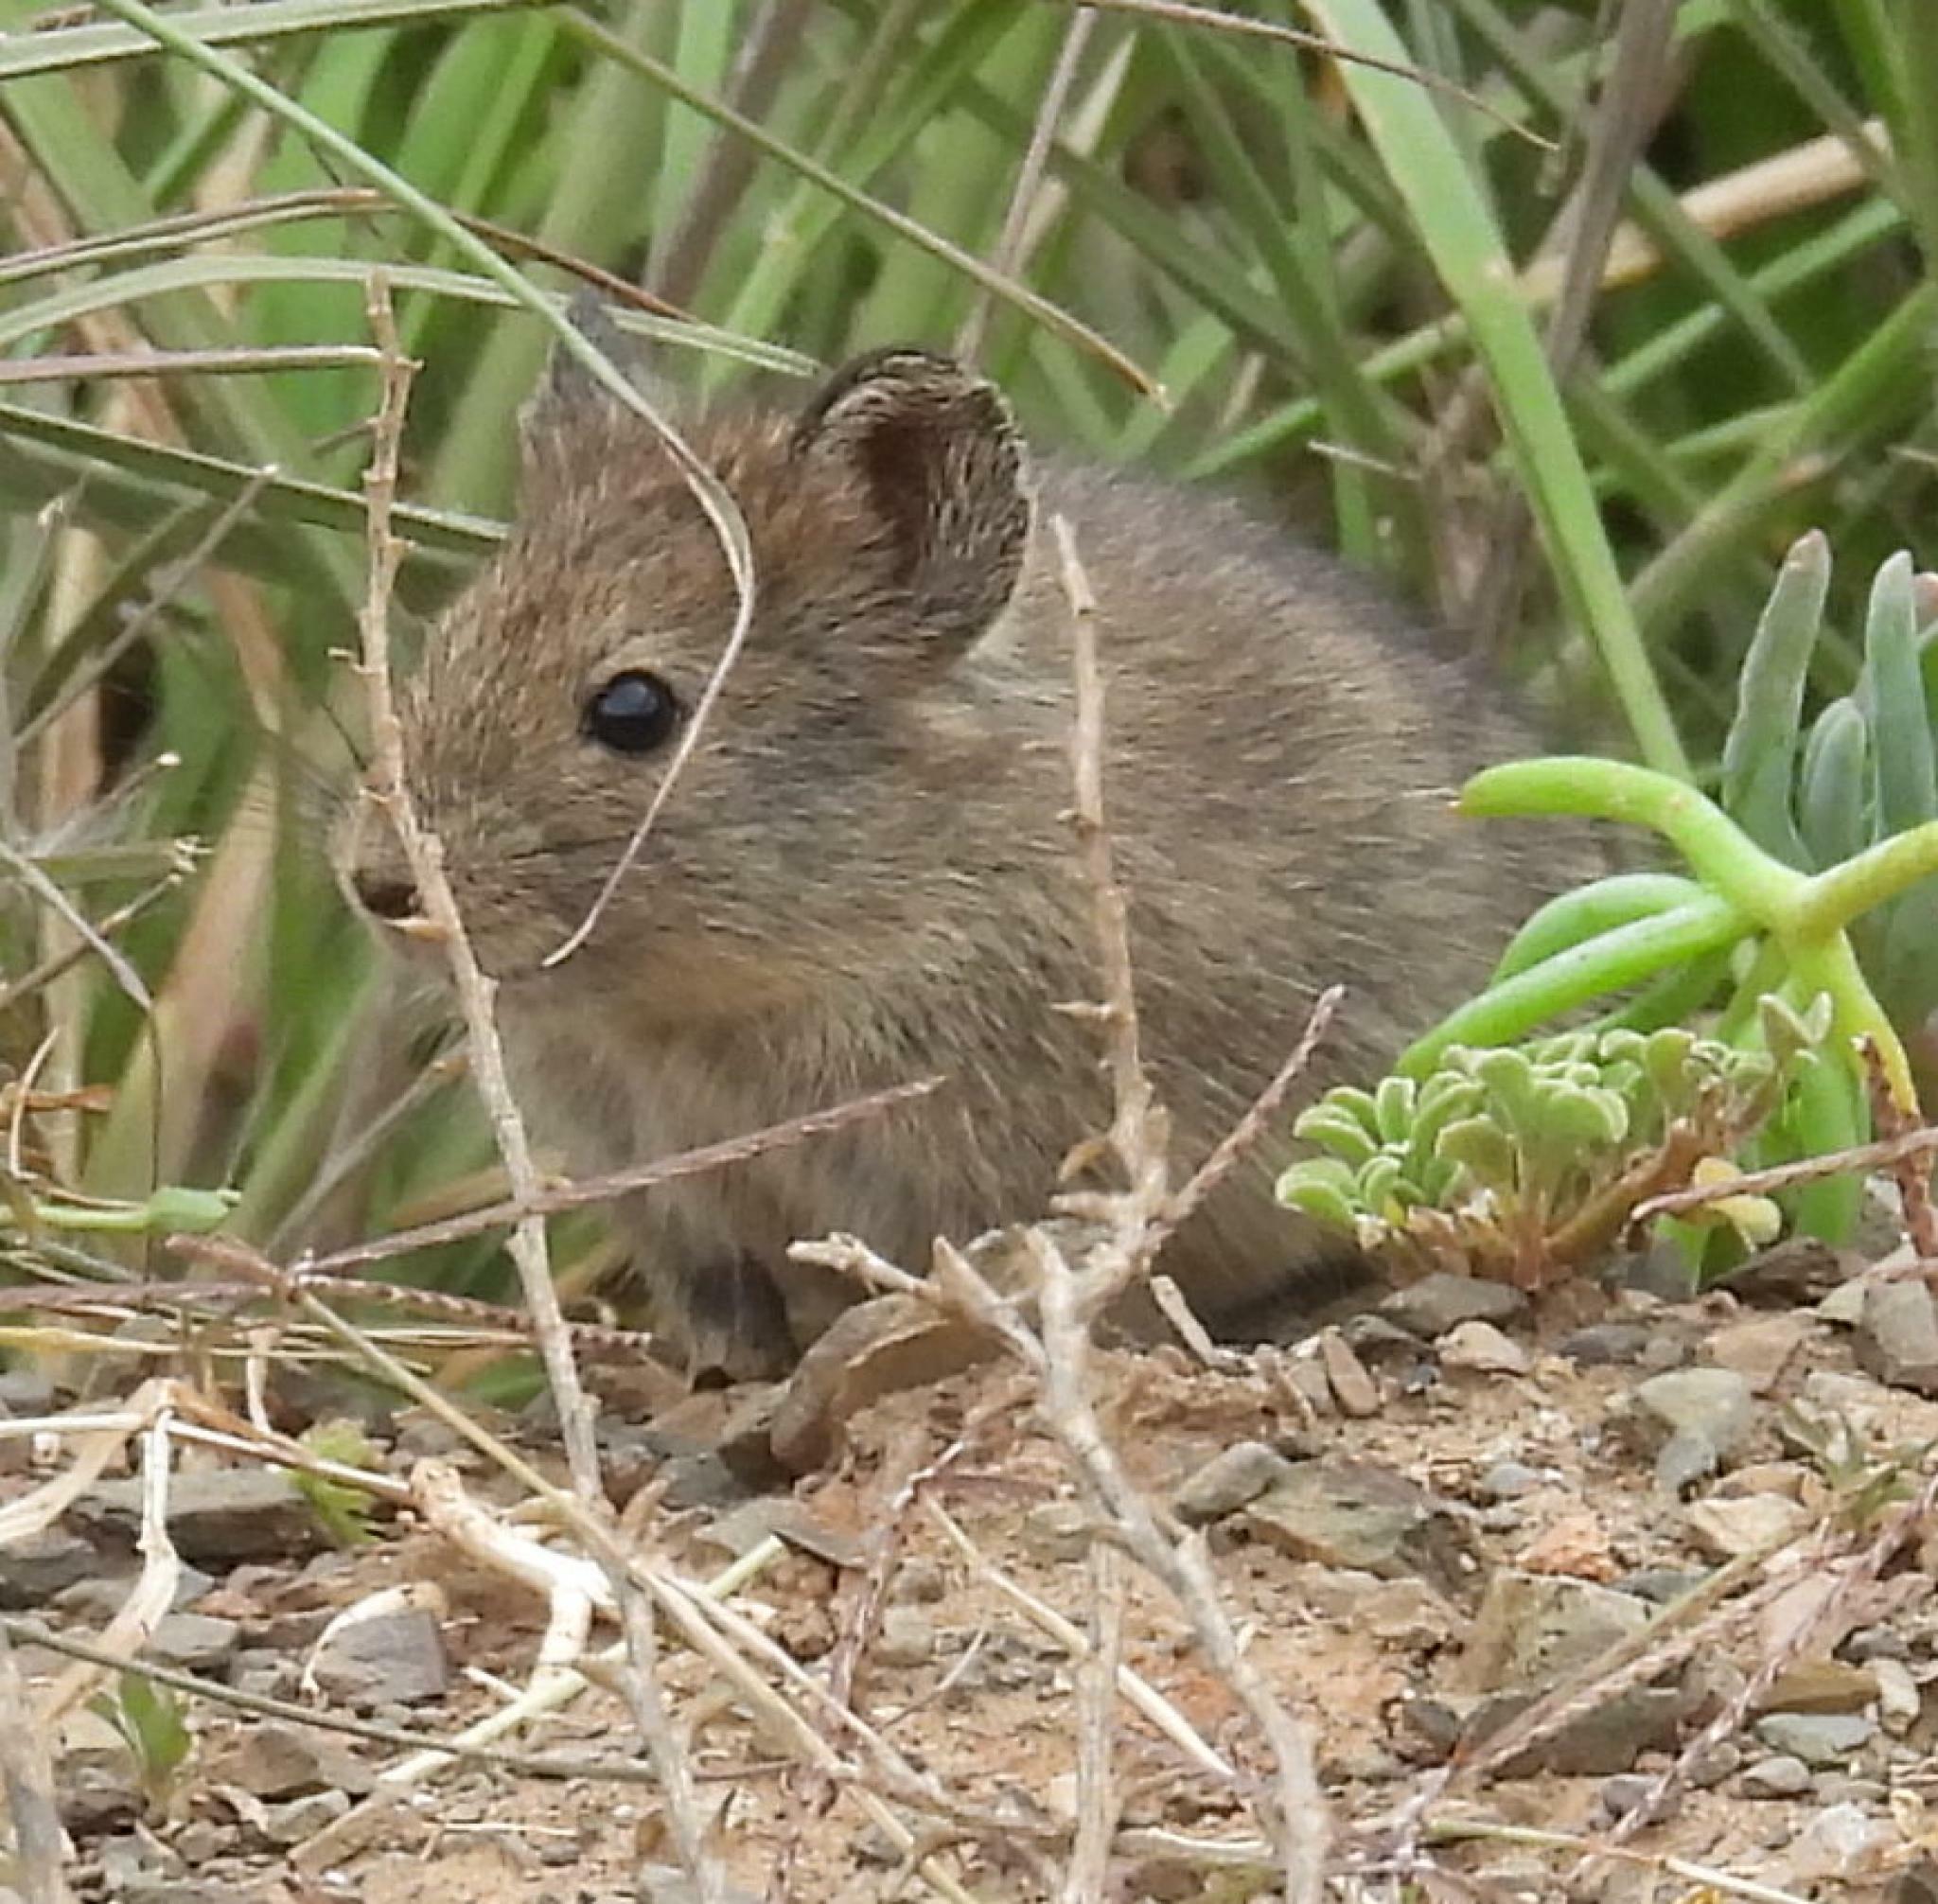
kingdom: Animalia
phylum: Chordata
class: Mammalia
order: Rodentia
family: Muridae
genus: Myotomys
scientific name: Myotomys unisulcatus
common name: Bush karroo rat
